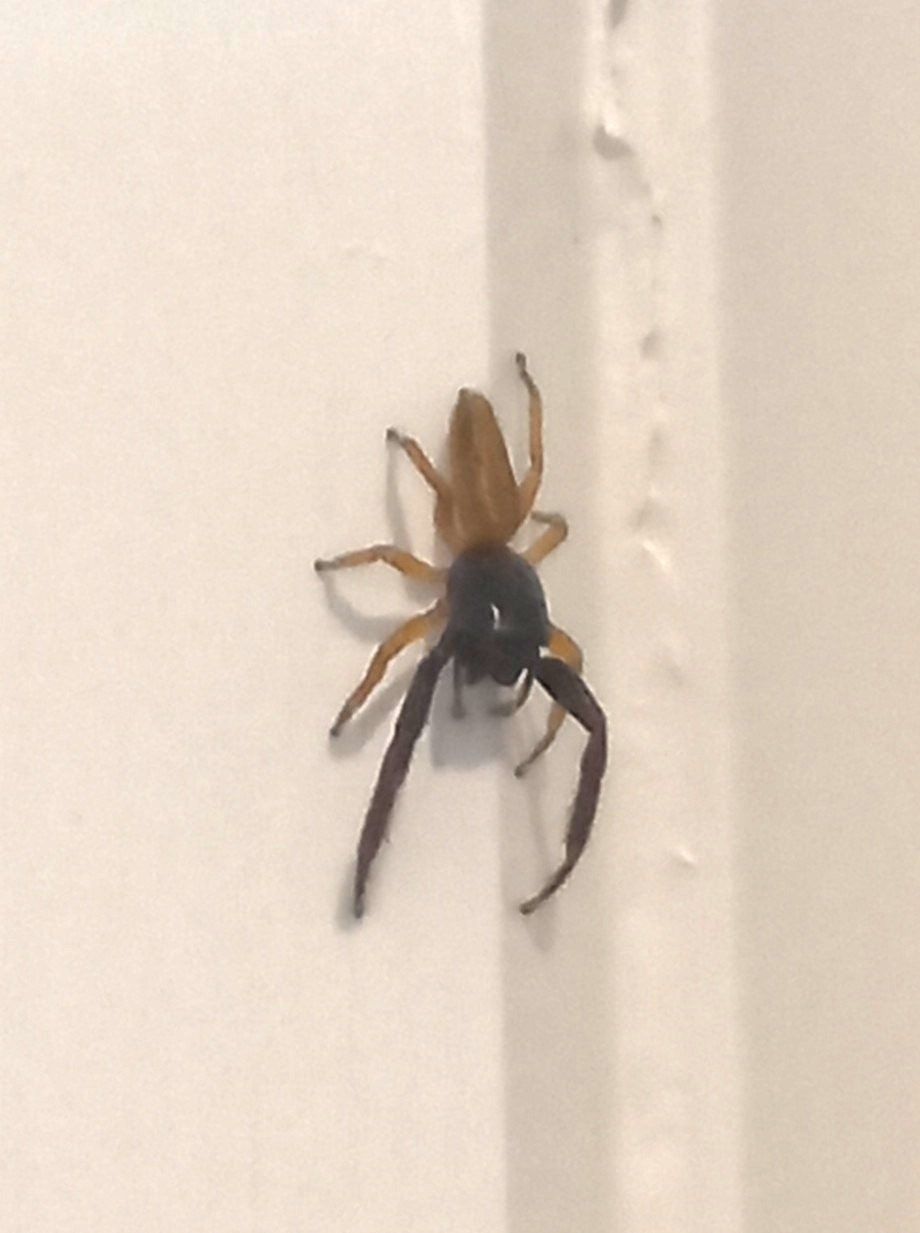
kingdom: Animalia
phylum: Arthropoda
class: Arachnida
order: Araneae
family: Salticidae
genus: Trite
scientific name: Trite planiceps
